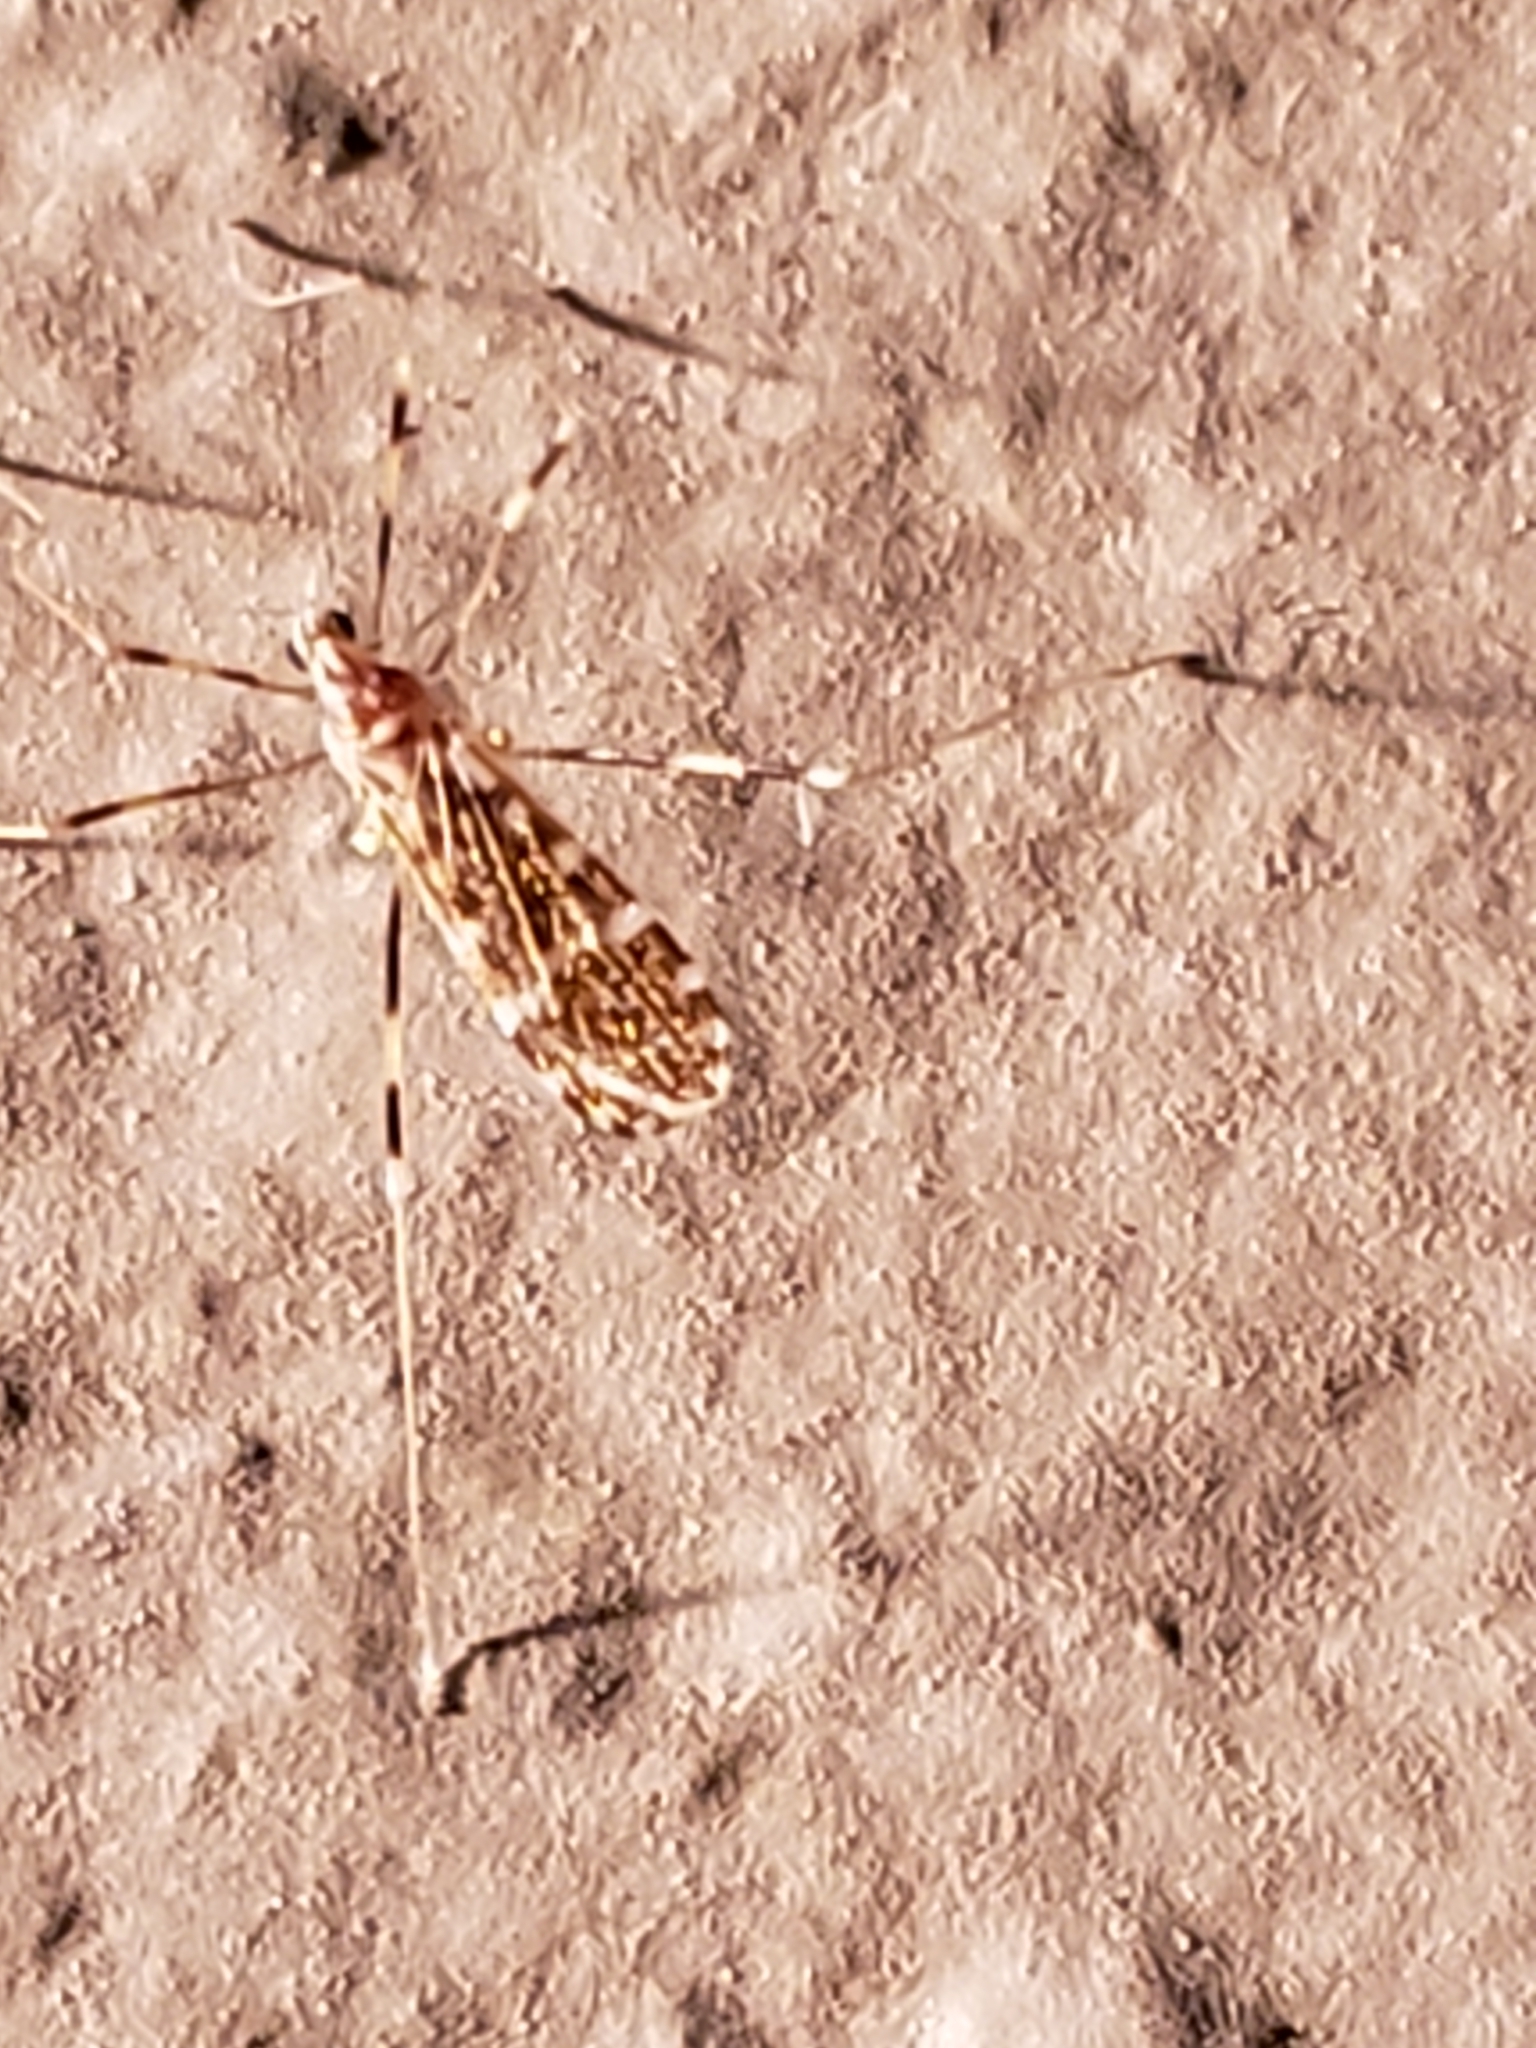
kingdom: Animalia
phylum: Arthropoda
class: Insecta
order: Diptera
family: Limoniidae
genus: Erioptera
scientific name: Erioptera caliptera
